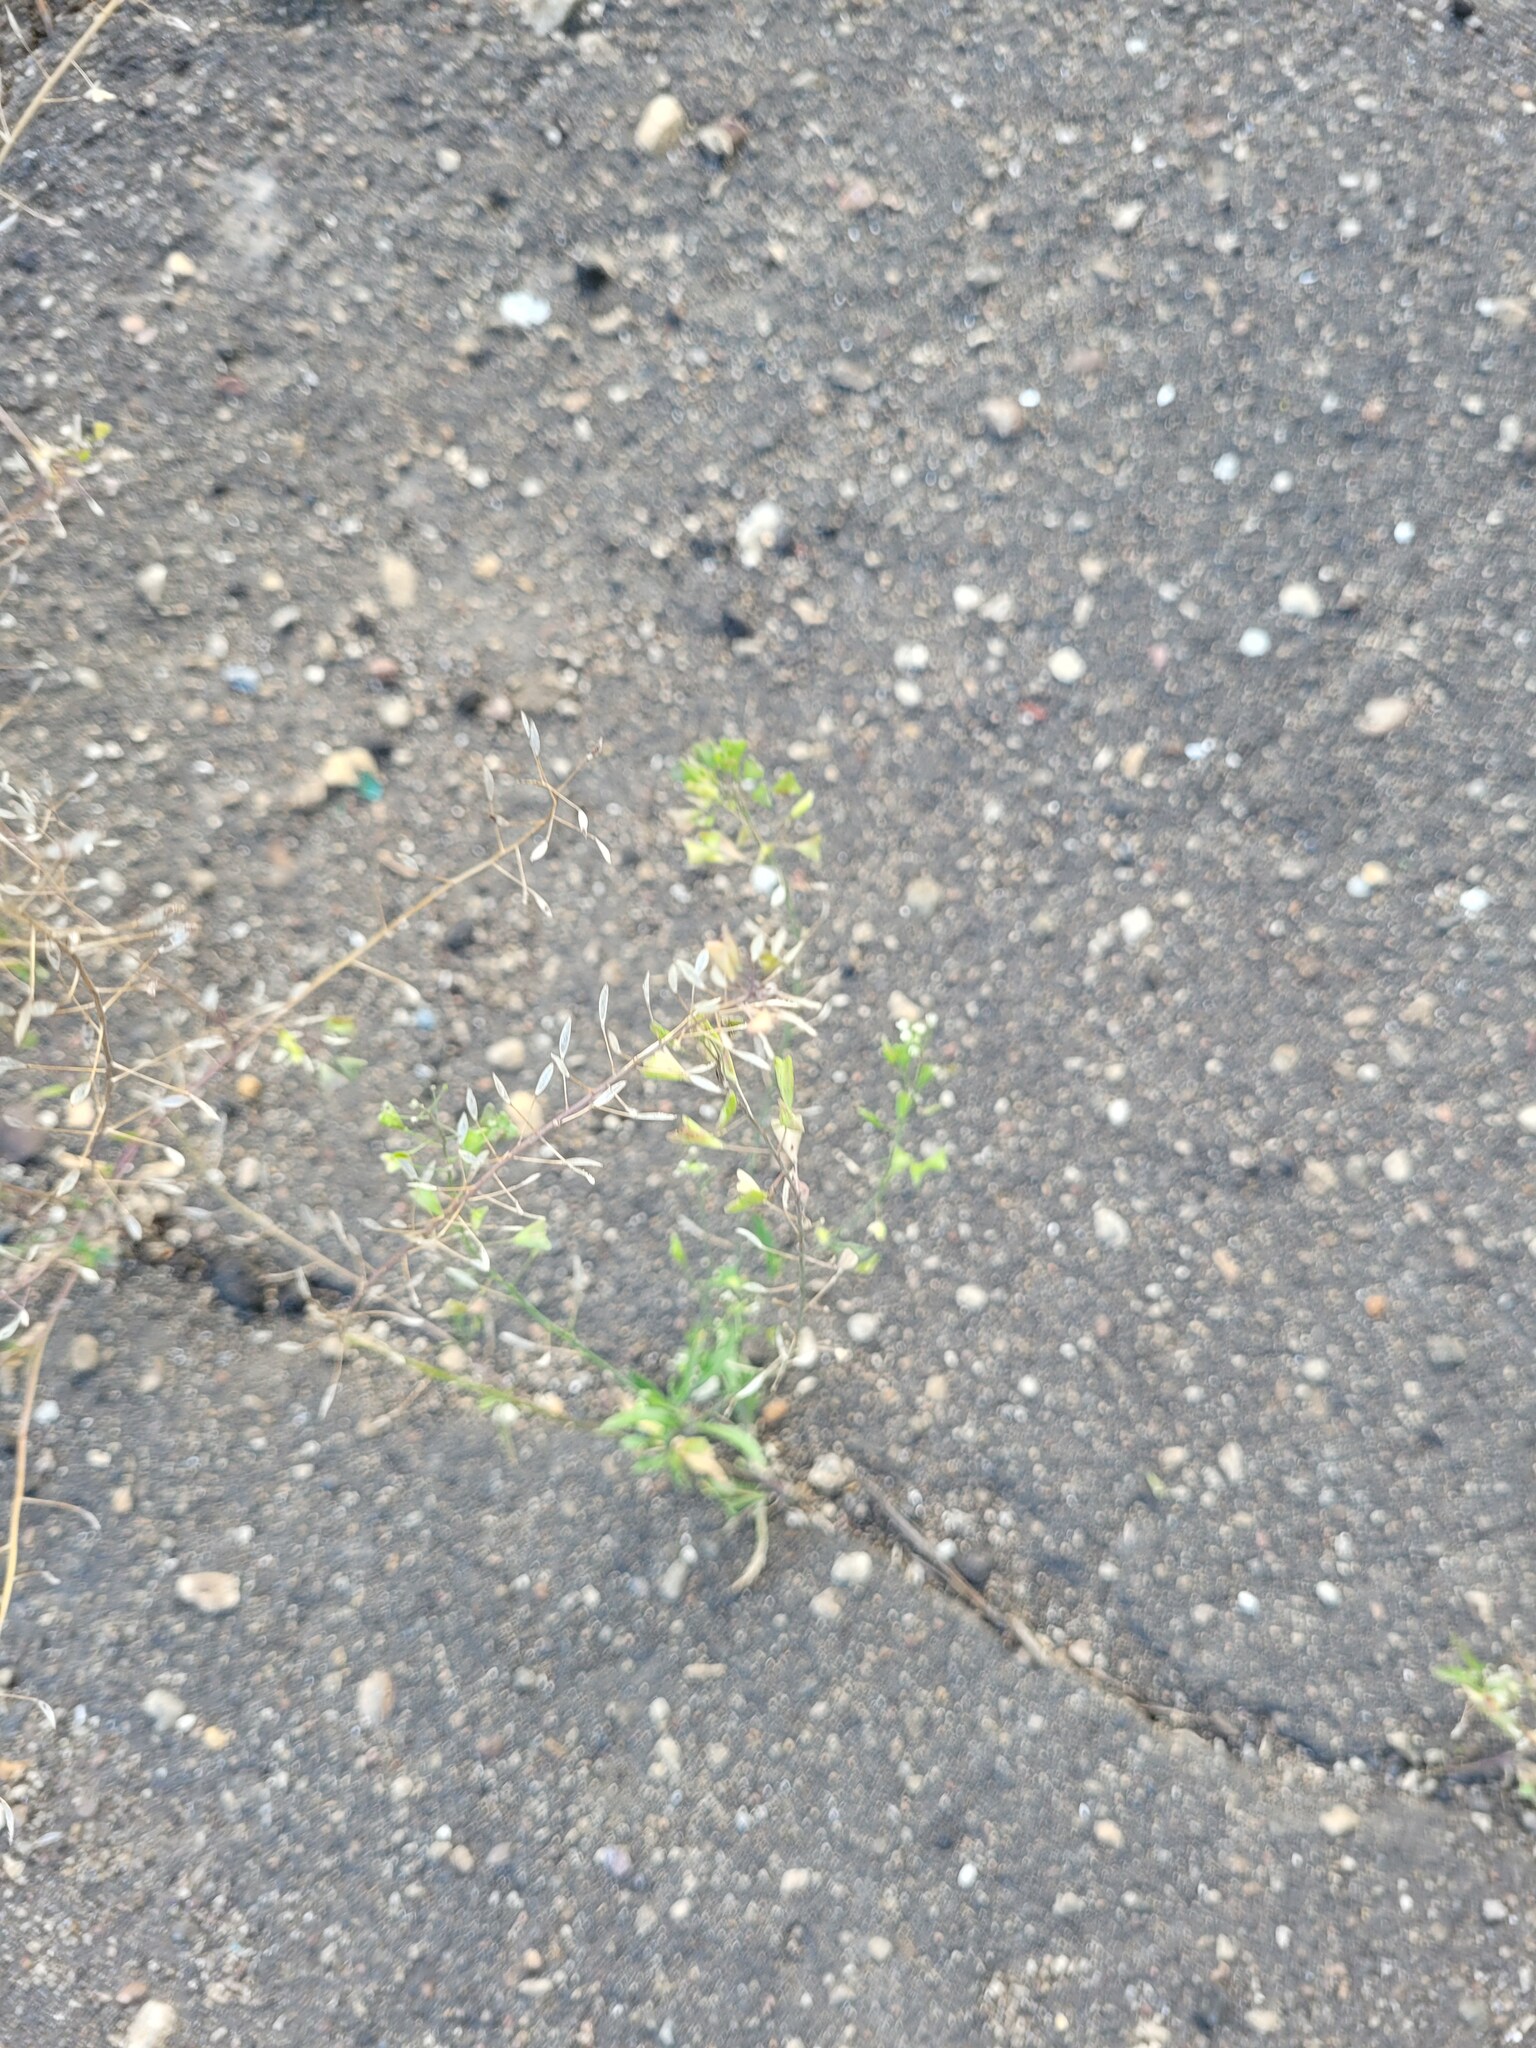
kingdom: Plantae
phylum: Tracheophyta
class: Magnoliopsida
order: Brassicales
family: Brassicaceae
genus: Capsella
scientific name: Capsella bursa-pastoris
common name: Shepherd's purse
